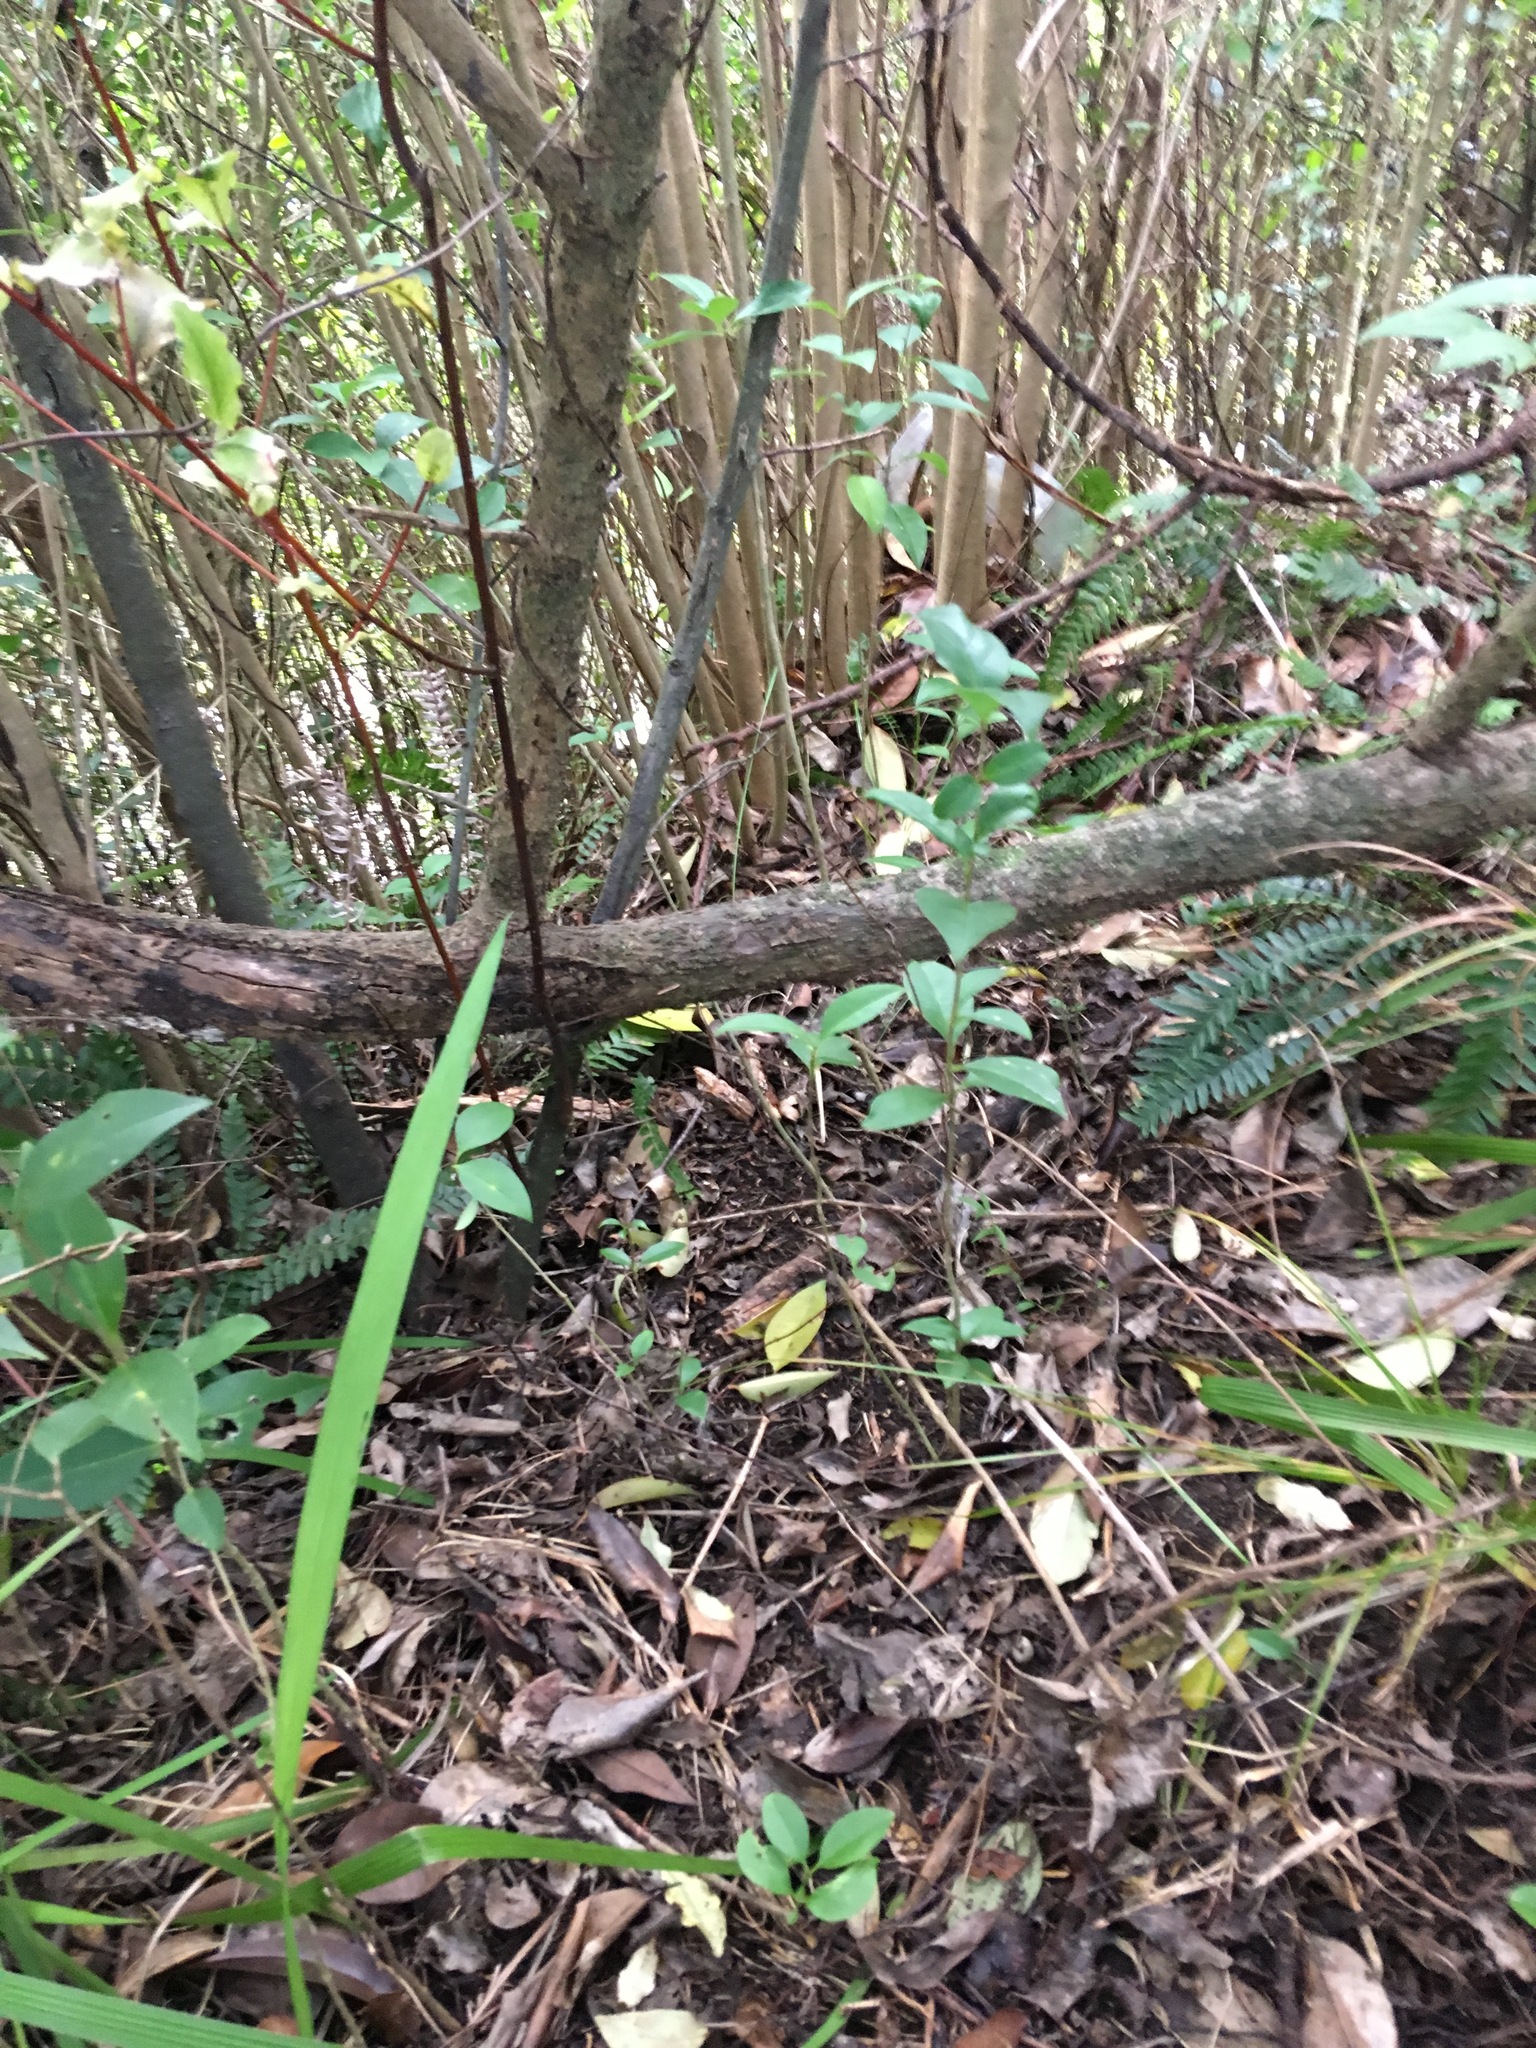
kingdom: Plantae
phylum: Tracheophyta
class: Magnoliopsida
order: Ericales
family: Primulaceae
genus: Myrsine
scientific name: Myrsine australis
